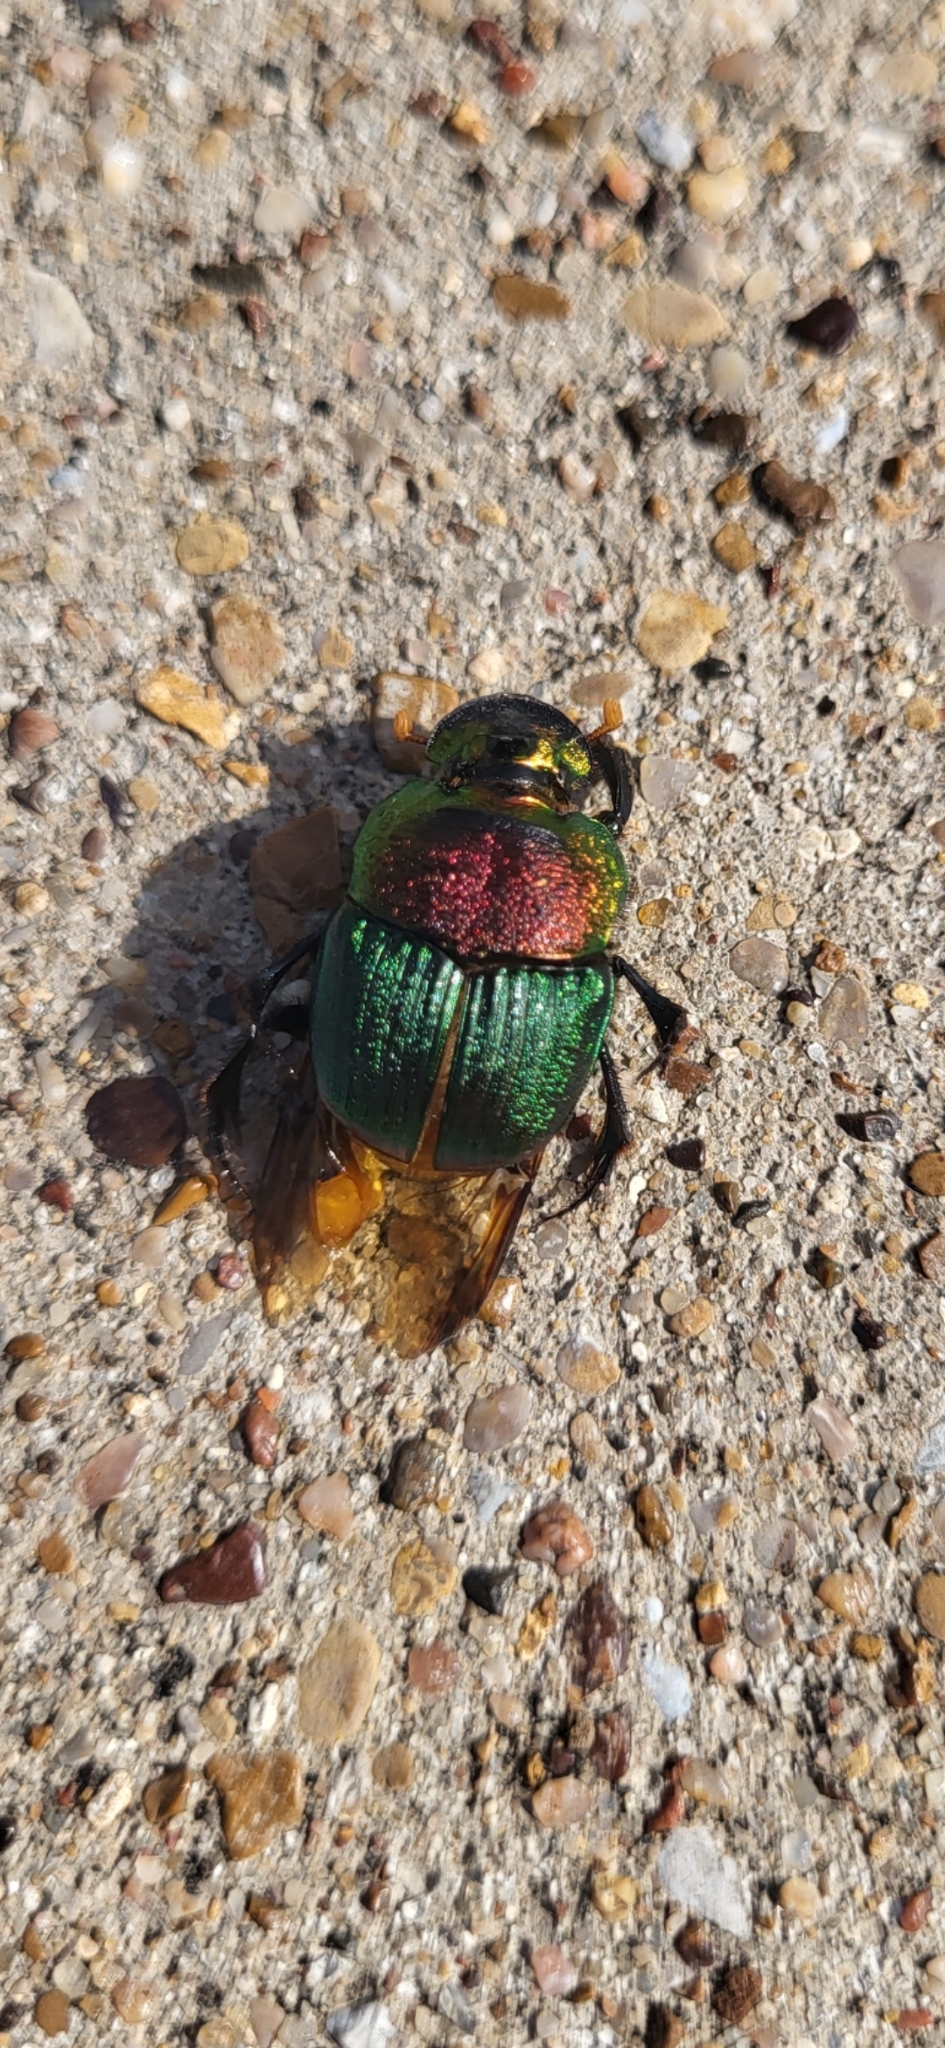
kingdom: Animalia
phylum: Arthropoda
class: Insecta
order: Coleoptera
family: Scarabaeidae
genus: Phanaeus
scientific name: Phanaeus vindex
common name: Rainbow scarab
